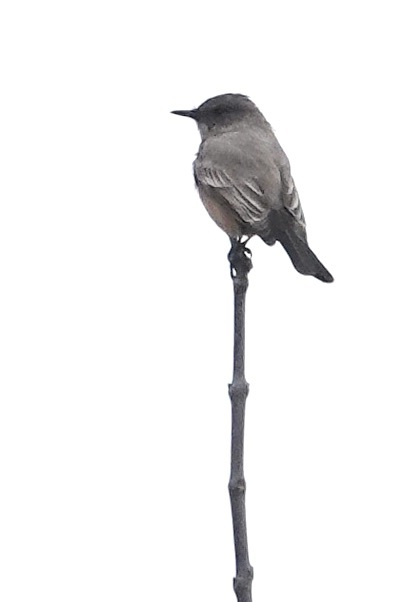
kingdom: Animalia
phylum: Chordata
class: Aves
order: Passeriformes
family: Tyrannidae
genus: Sayornis
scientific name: Sayornis saya
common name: Say's phoebe
